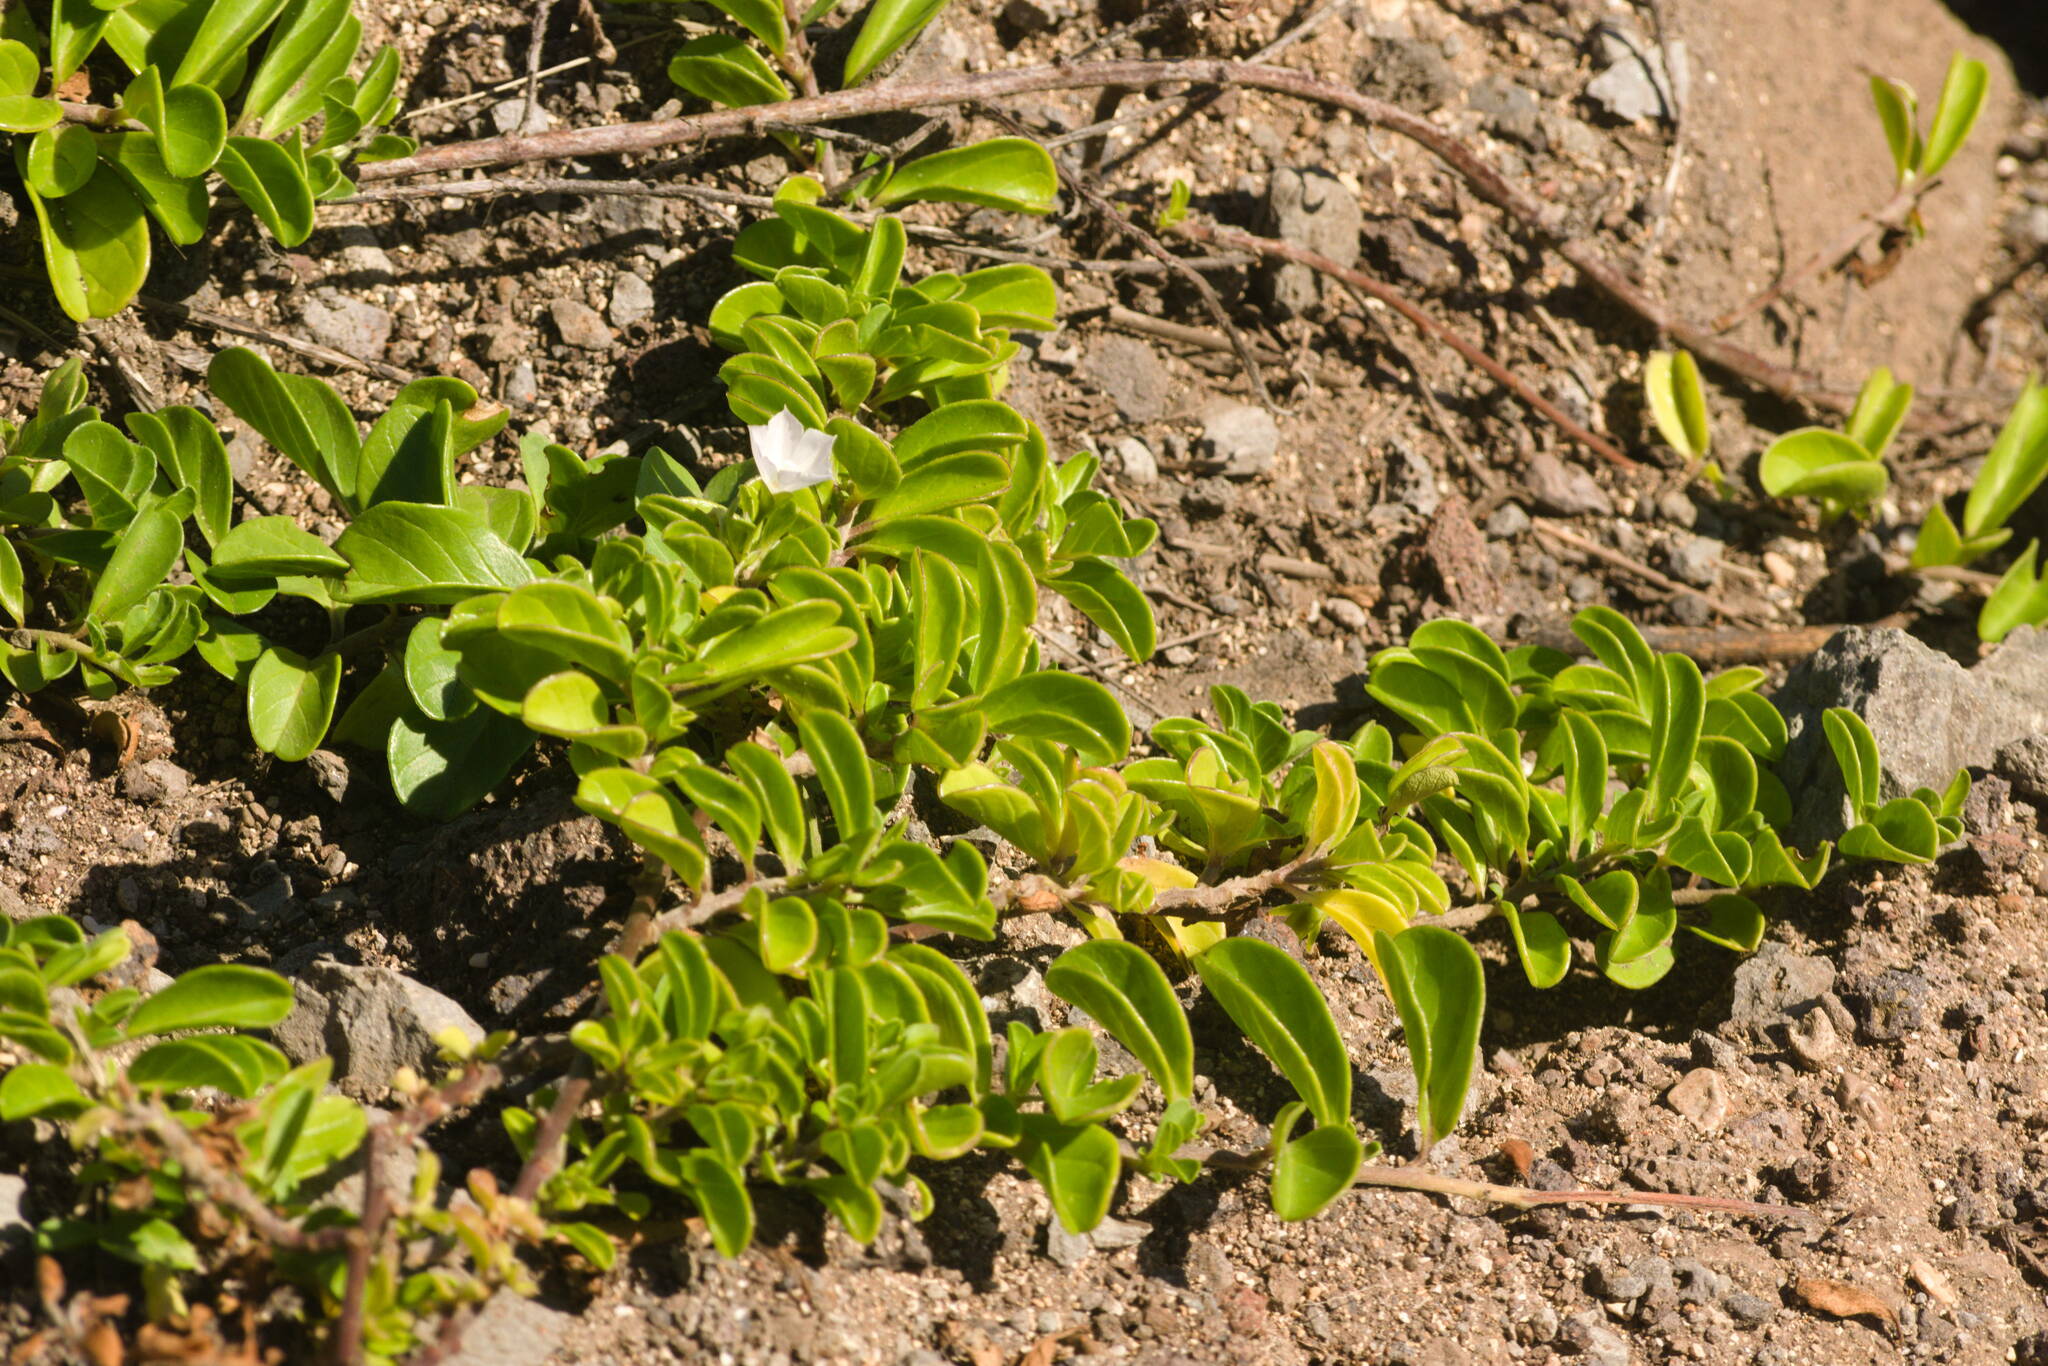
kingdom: Plantae
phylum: Tracheophyta
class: Magnoliopsida
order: Solanales
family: Convolvulaceae
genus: Jacquemontia
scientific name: Jacquemontia sandwicensis
